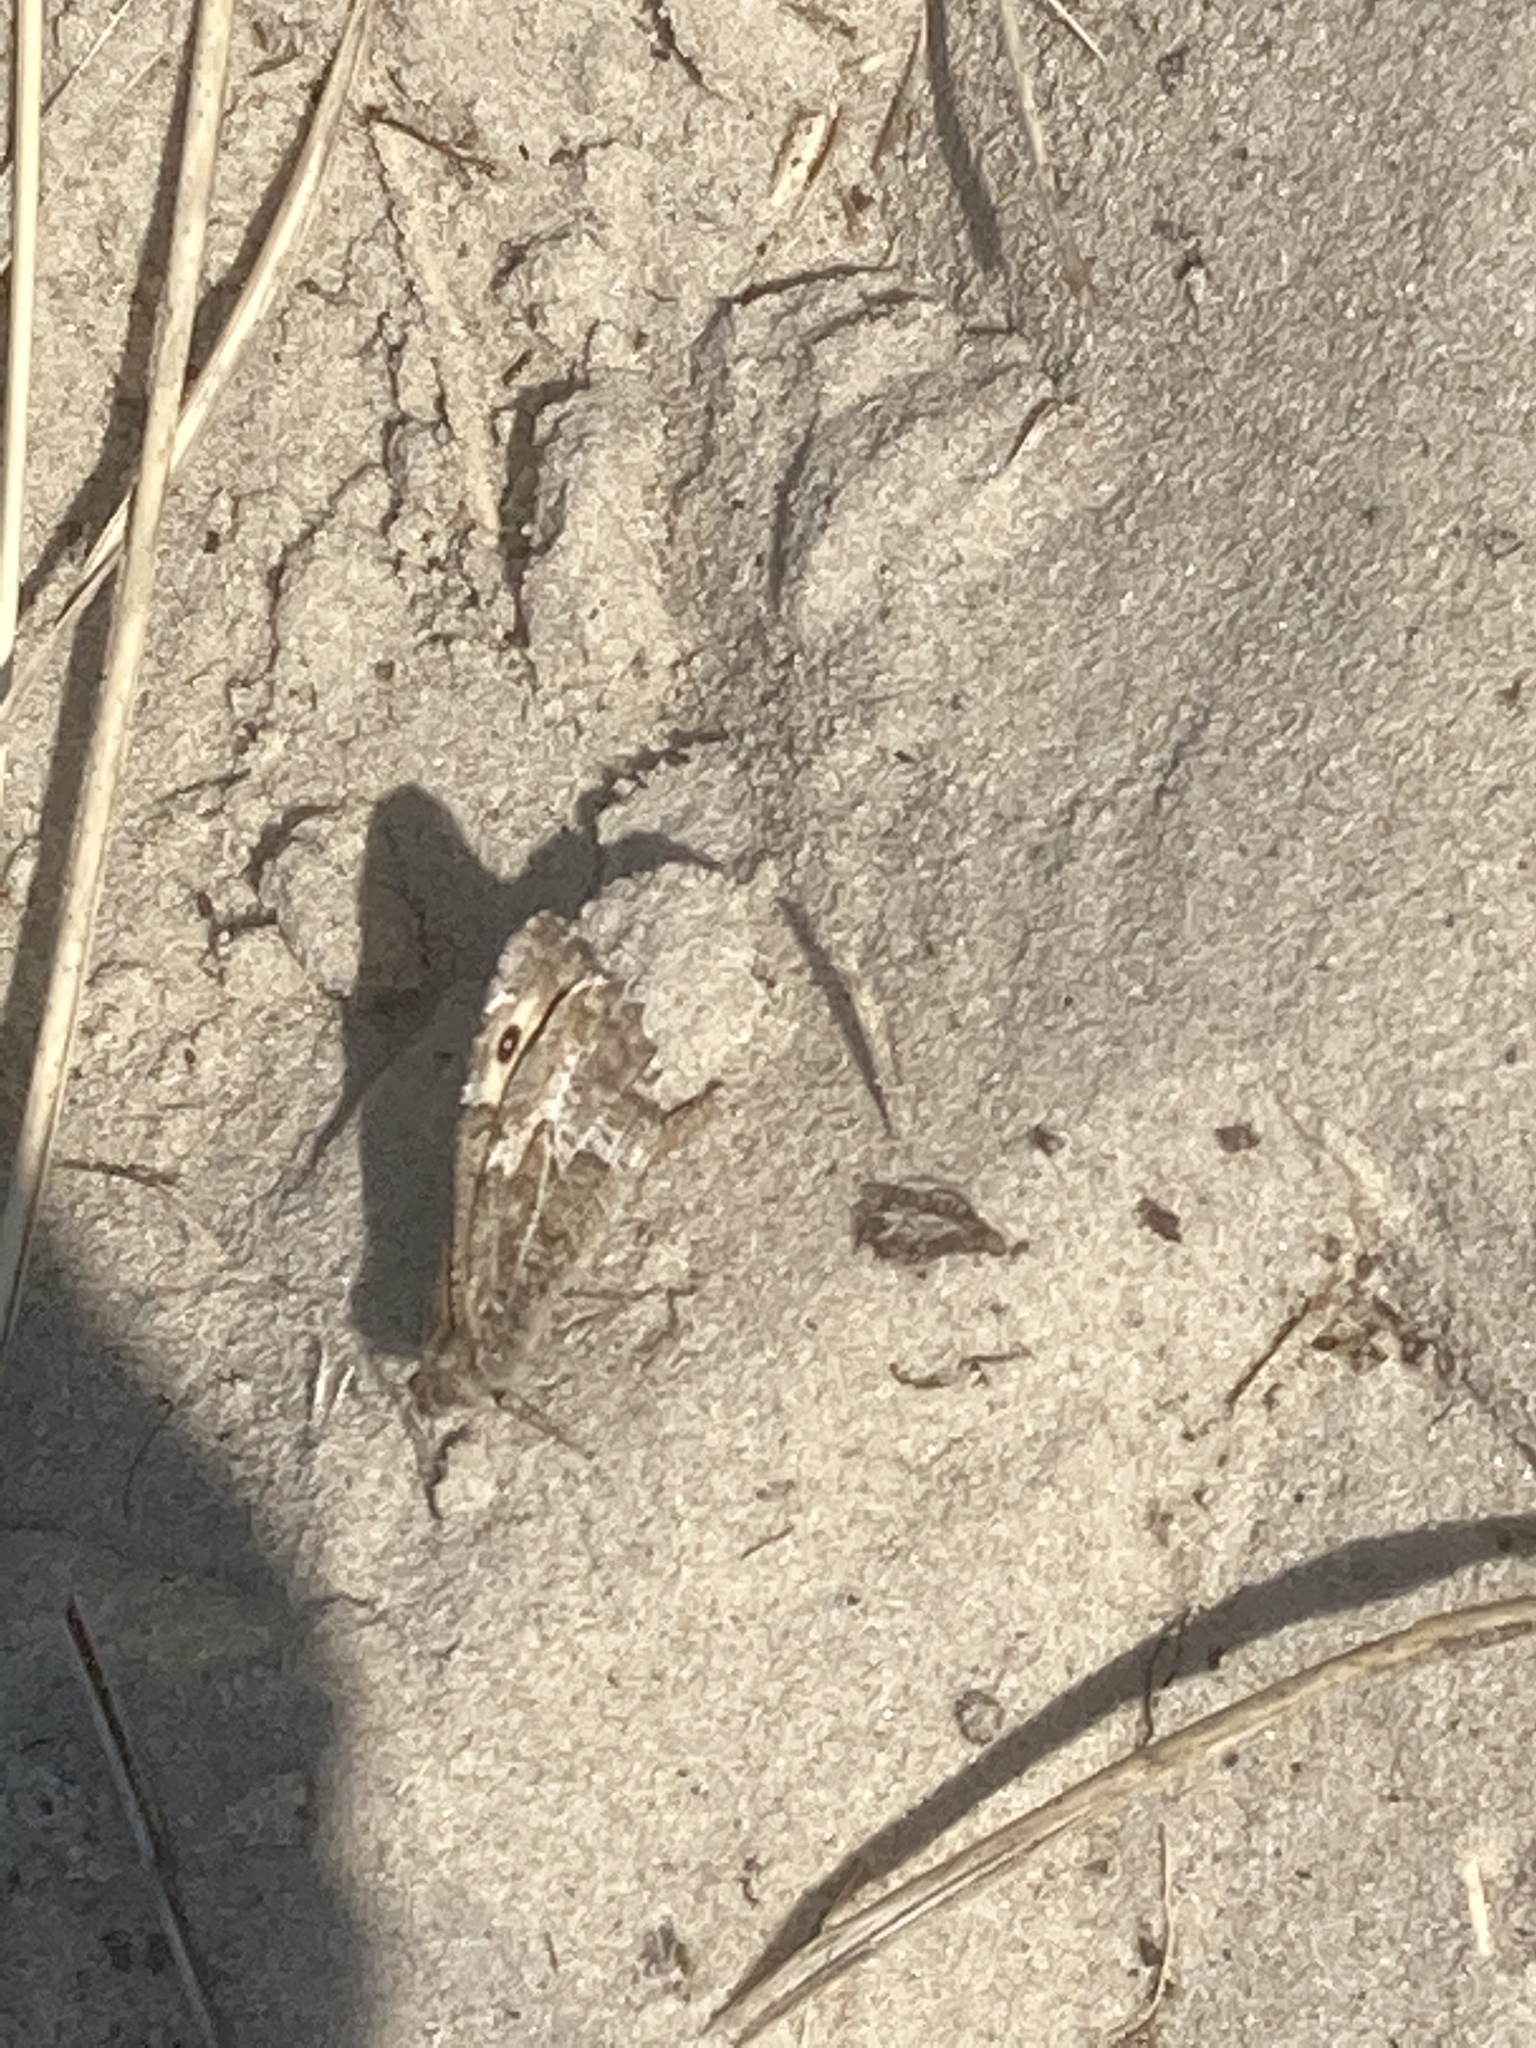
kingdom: Animalia
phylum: Arthropoda
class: Insecta
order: Lepidoptera
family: Nymphalidae
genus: Hipparchia
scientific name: Hipparchia semele
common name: Grayling
